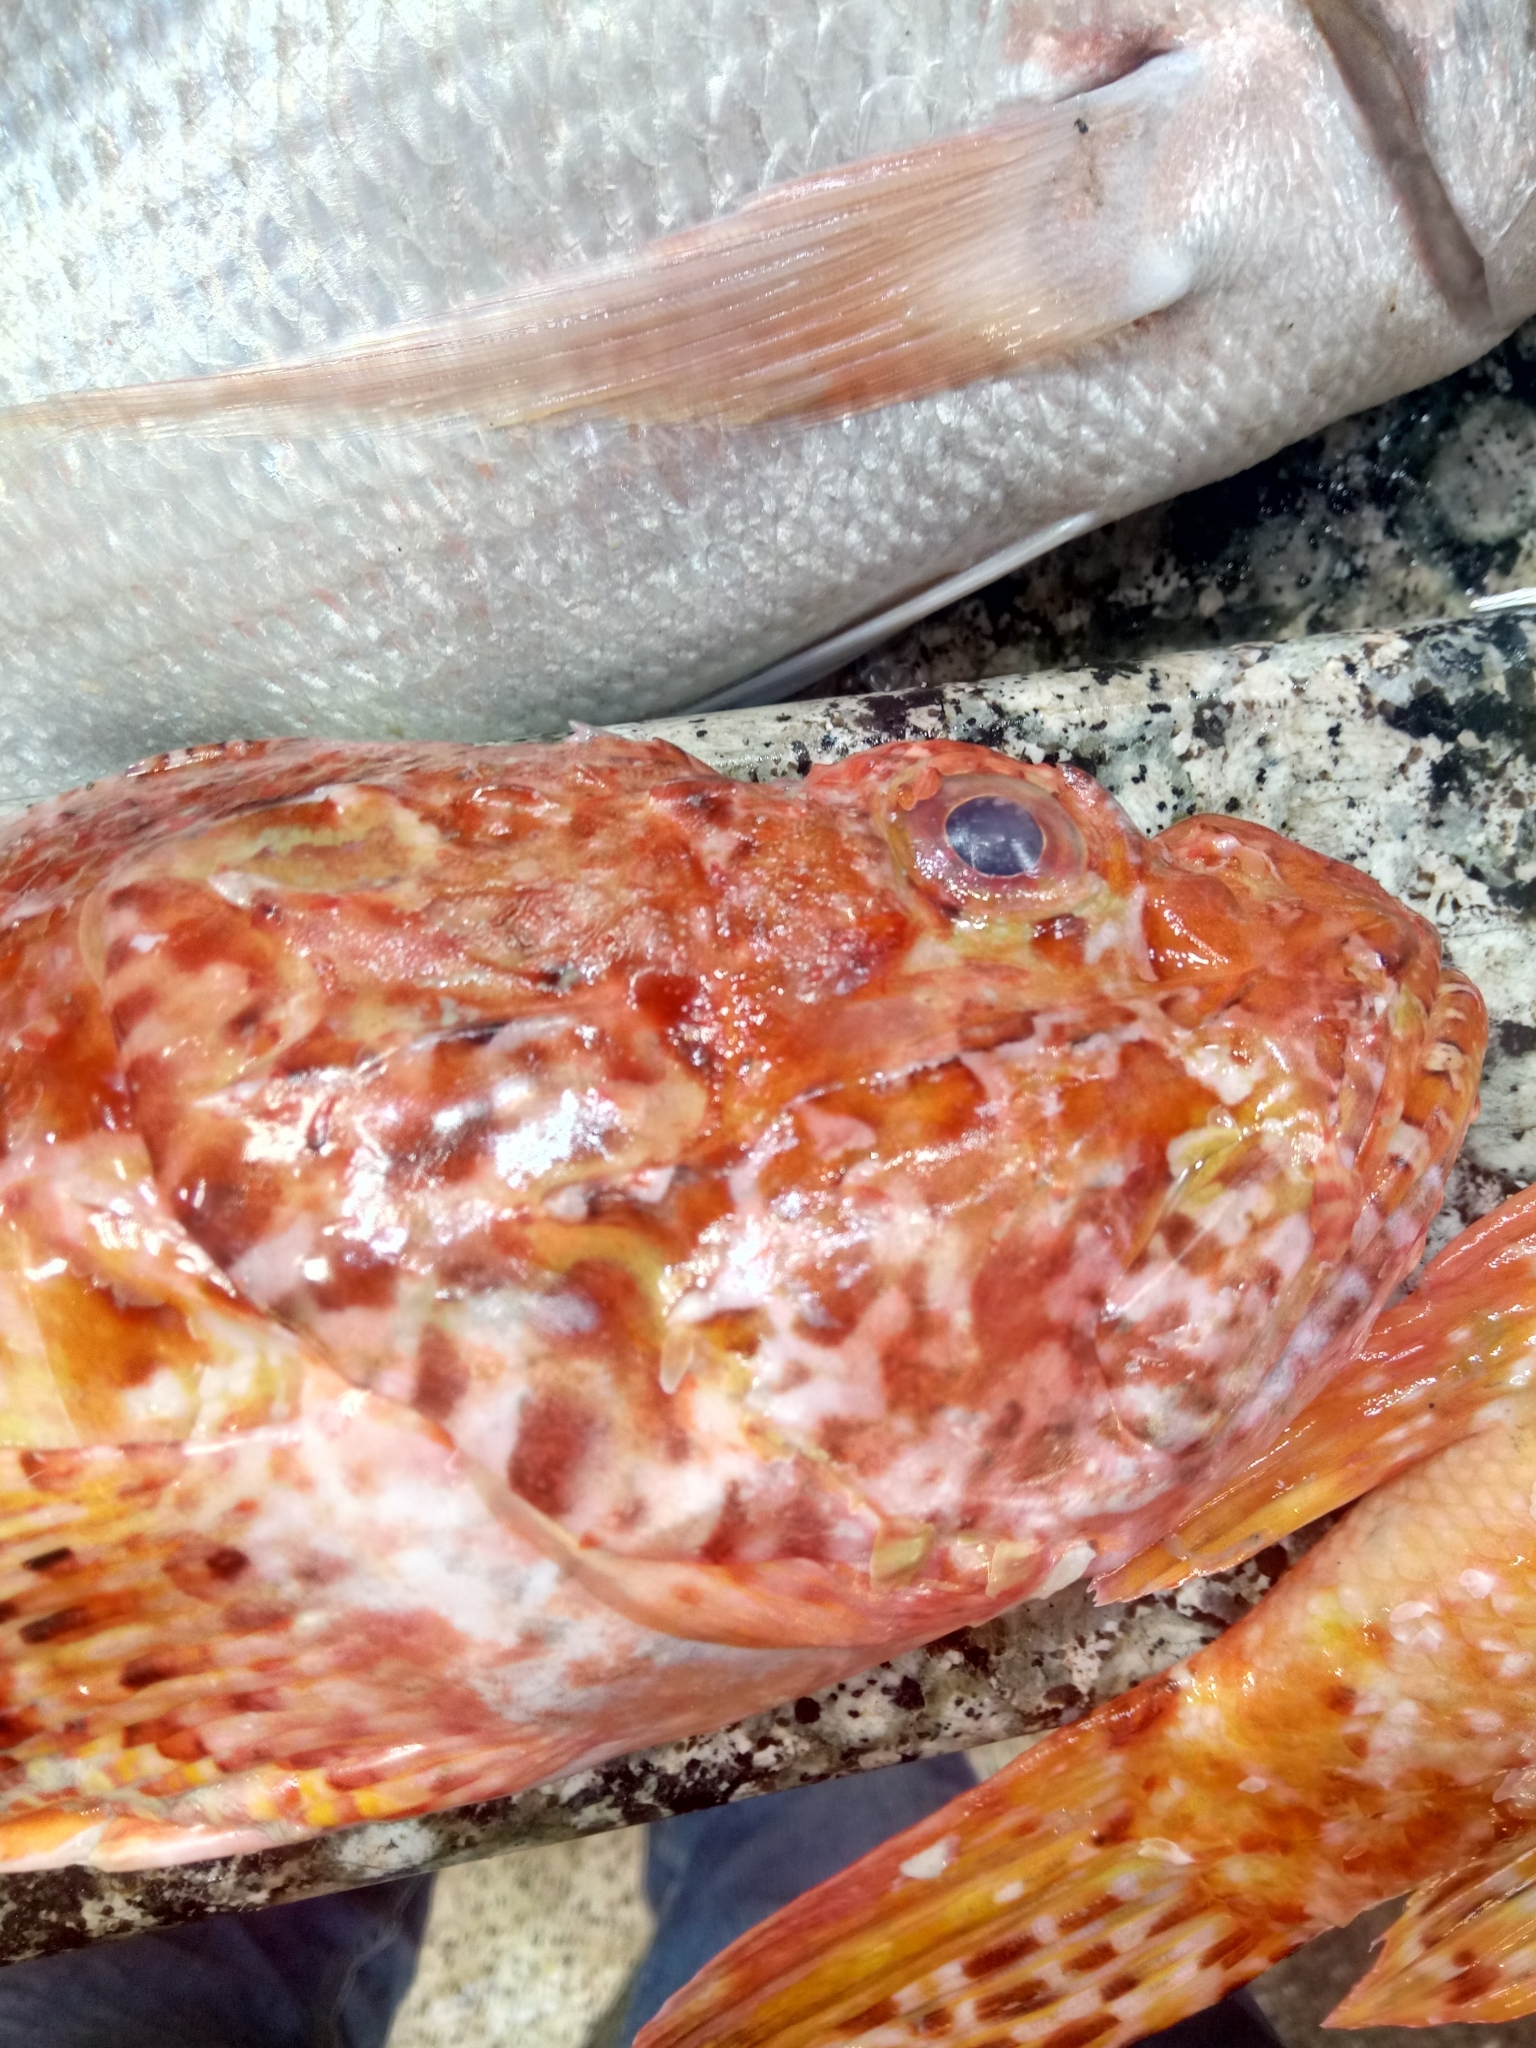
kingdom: Animalia
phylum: Chordata
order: Scorpaeniformes
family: Scorpaenidae
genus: Scorpaena
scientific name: Scorpaena scrofa
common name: Red scorpionfish
